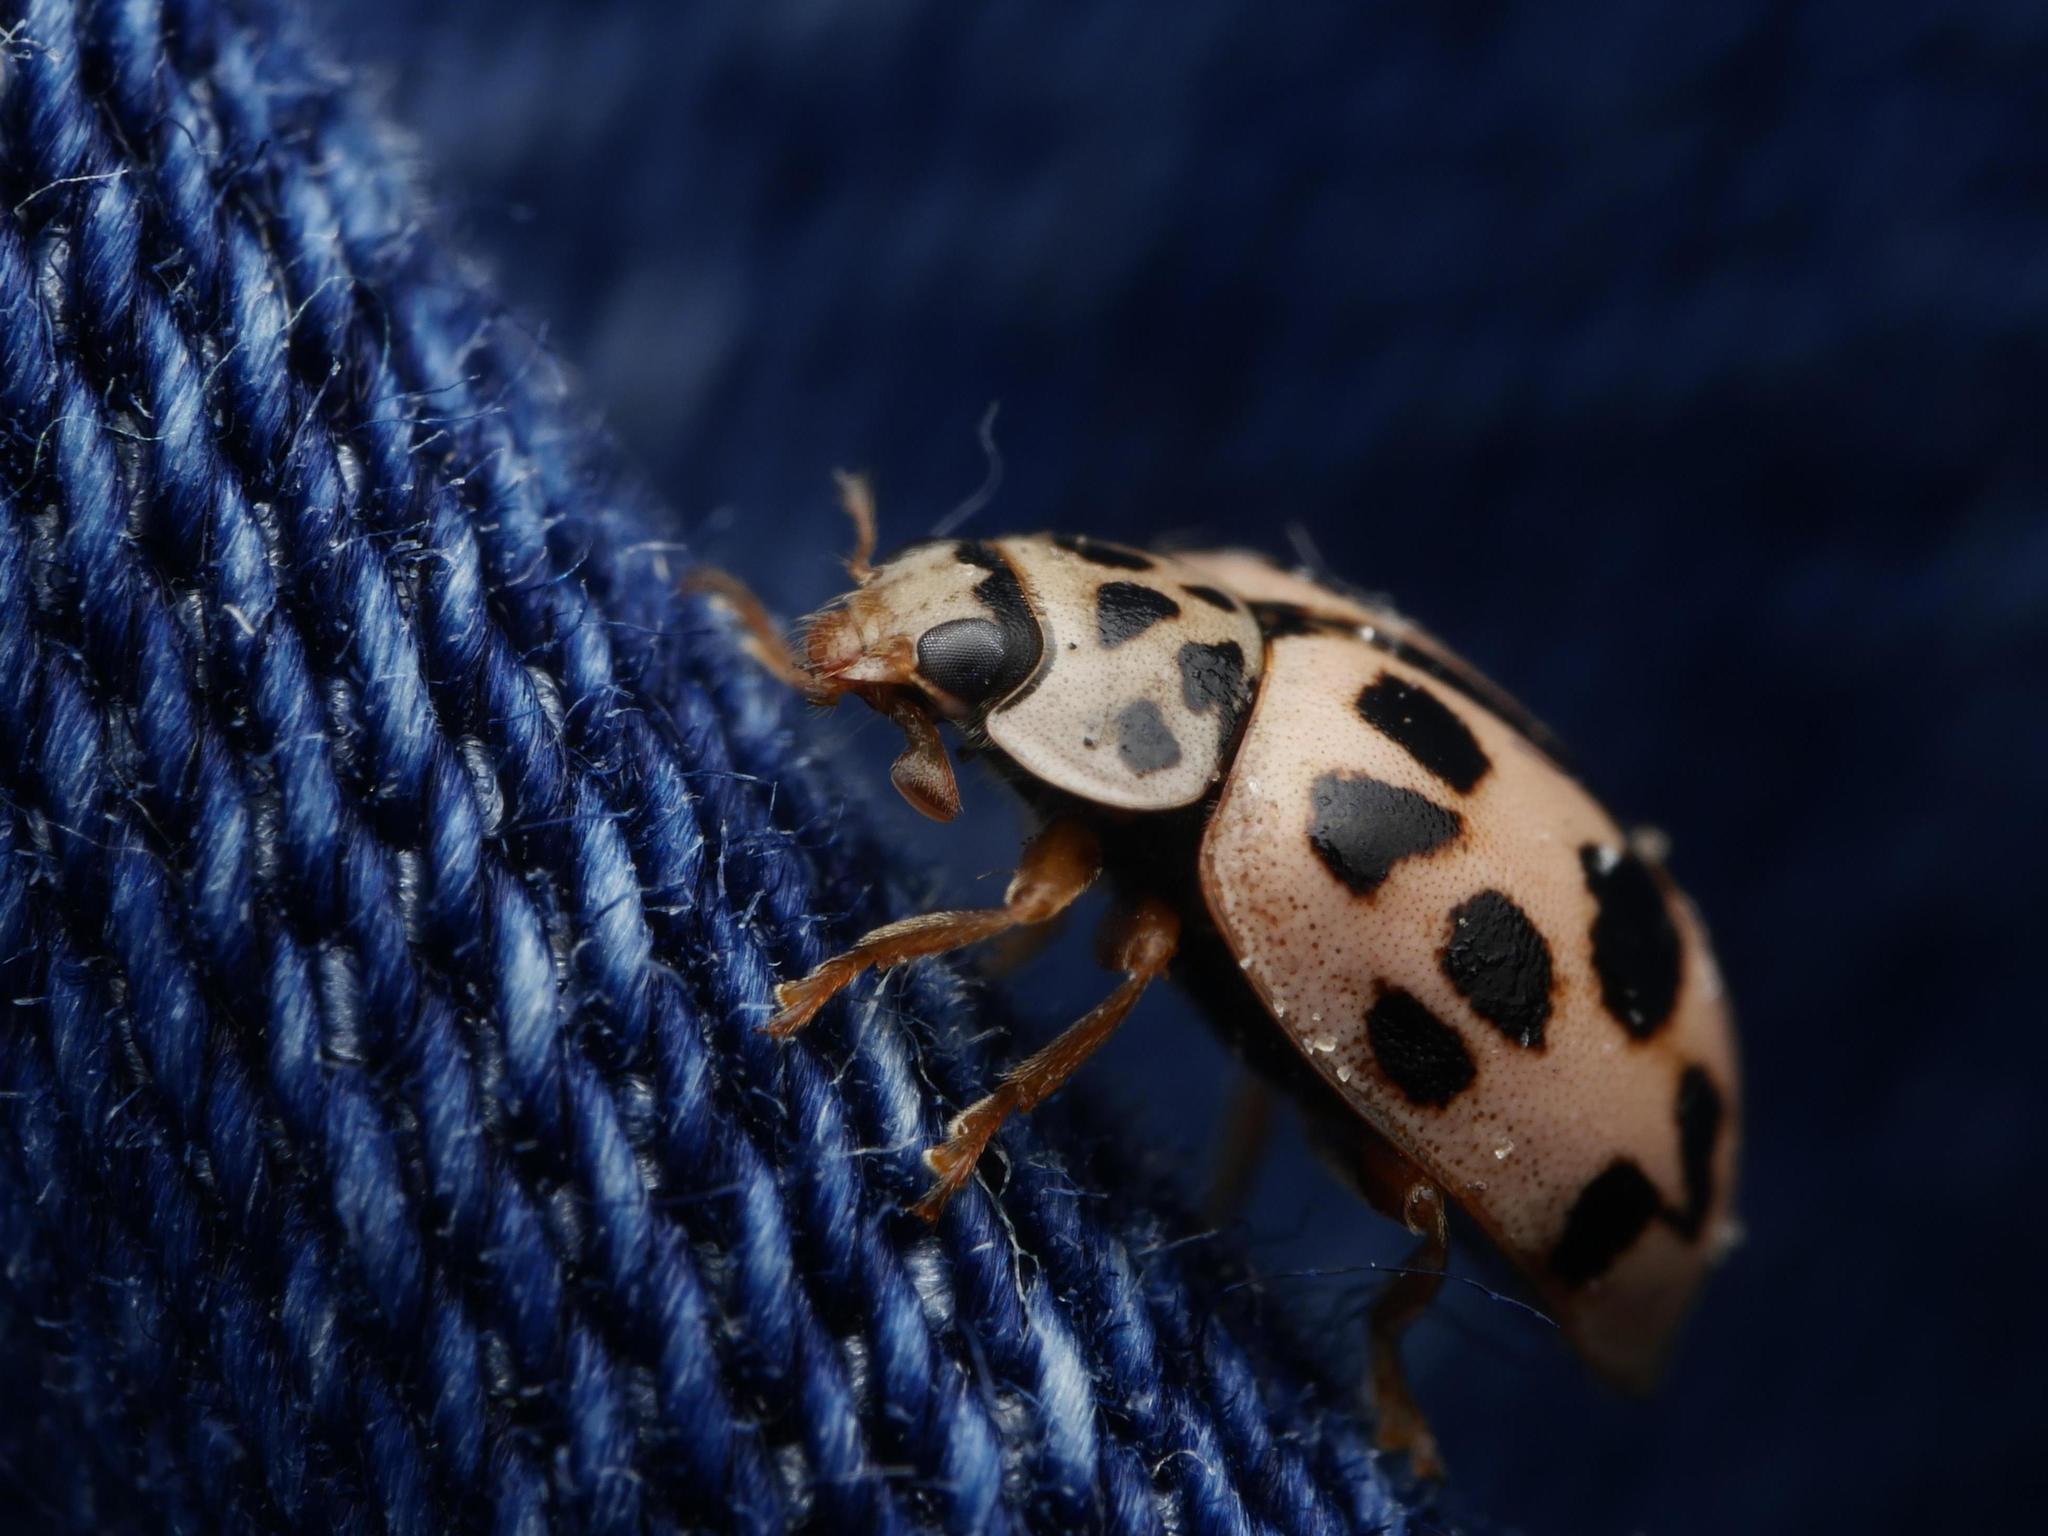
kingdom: Animalia
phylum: Arthropoda
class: Insecta
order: Coleoptera
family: Coccinellidae
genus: Oenopia
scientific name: Oenopia conglobata
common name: Ladybird beetle
